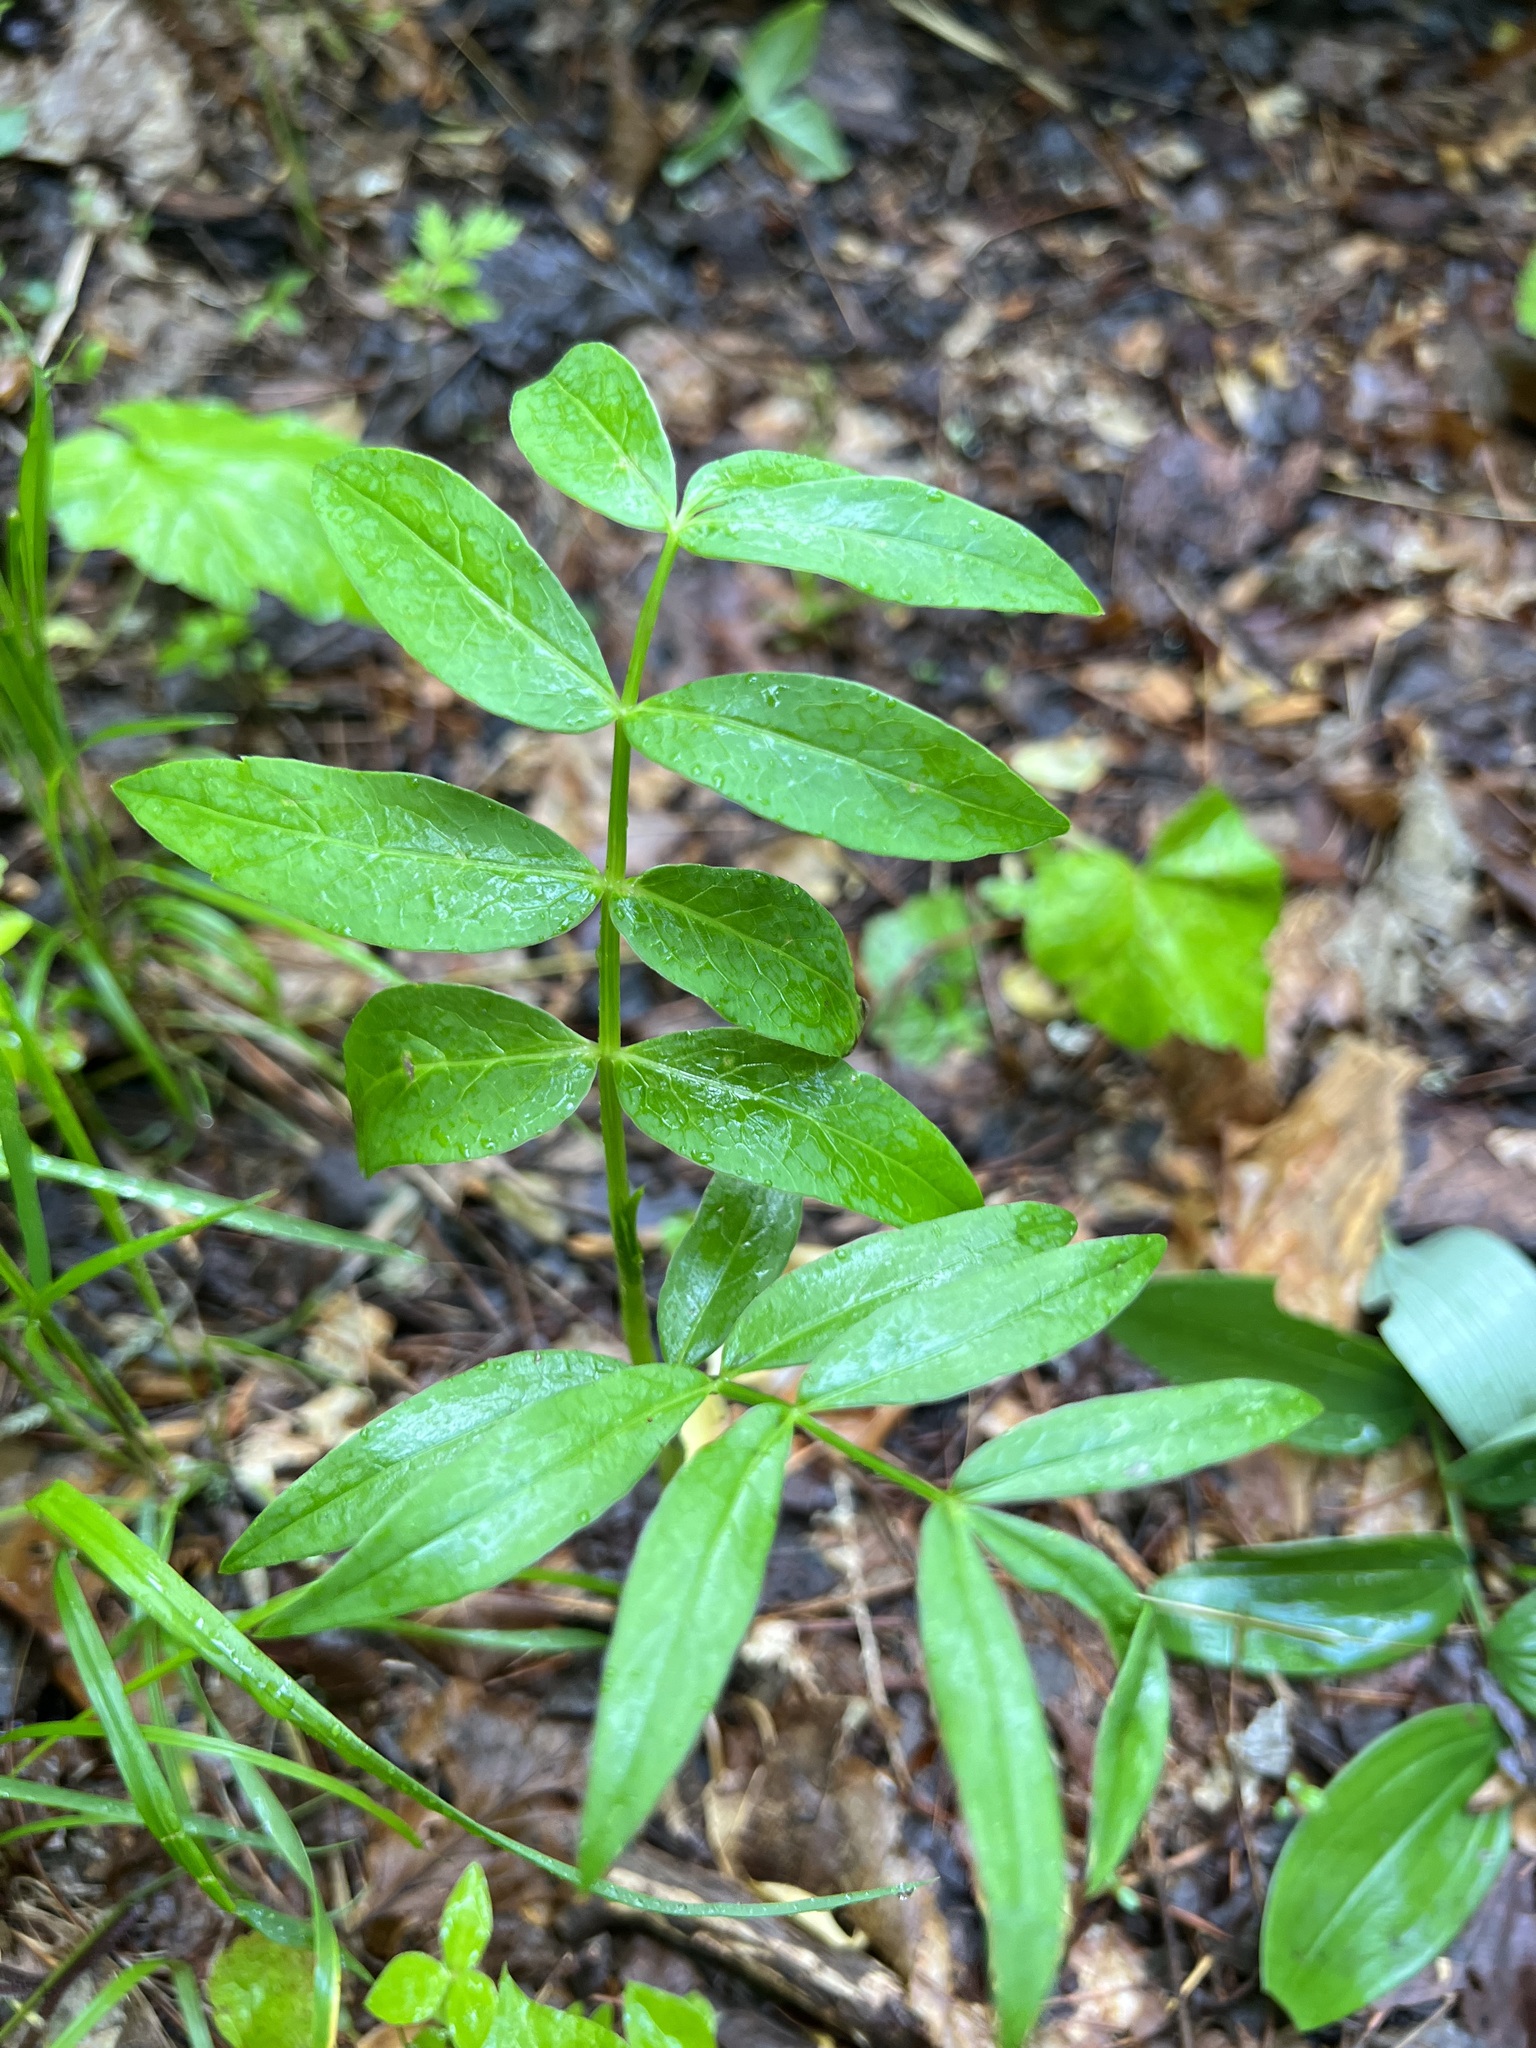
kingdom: Plantae
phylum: Tracheophyta
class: Magnoliopsida
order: Apiales
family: Apiaceae
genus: Oxypolis
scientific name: Oxypolis rigidior
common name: Cowbane
